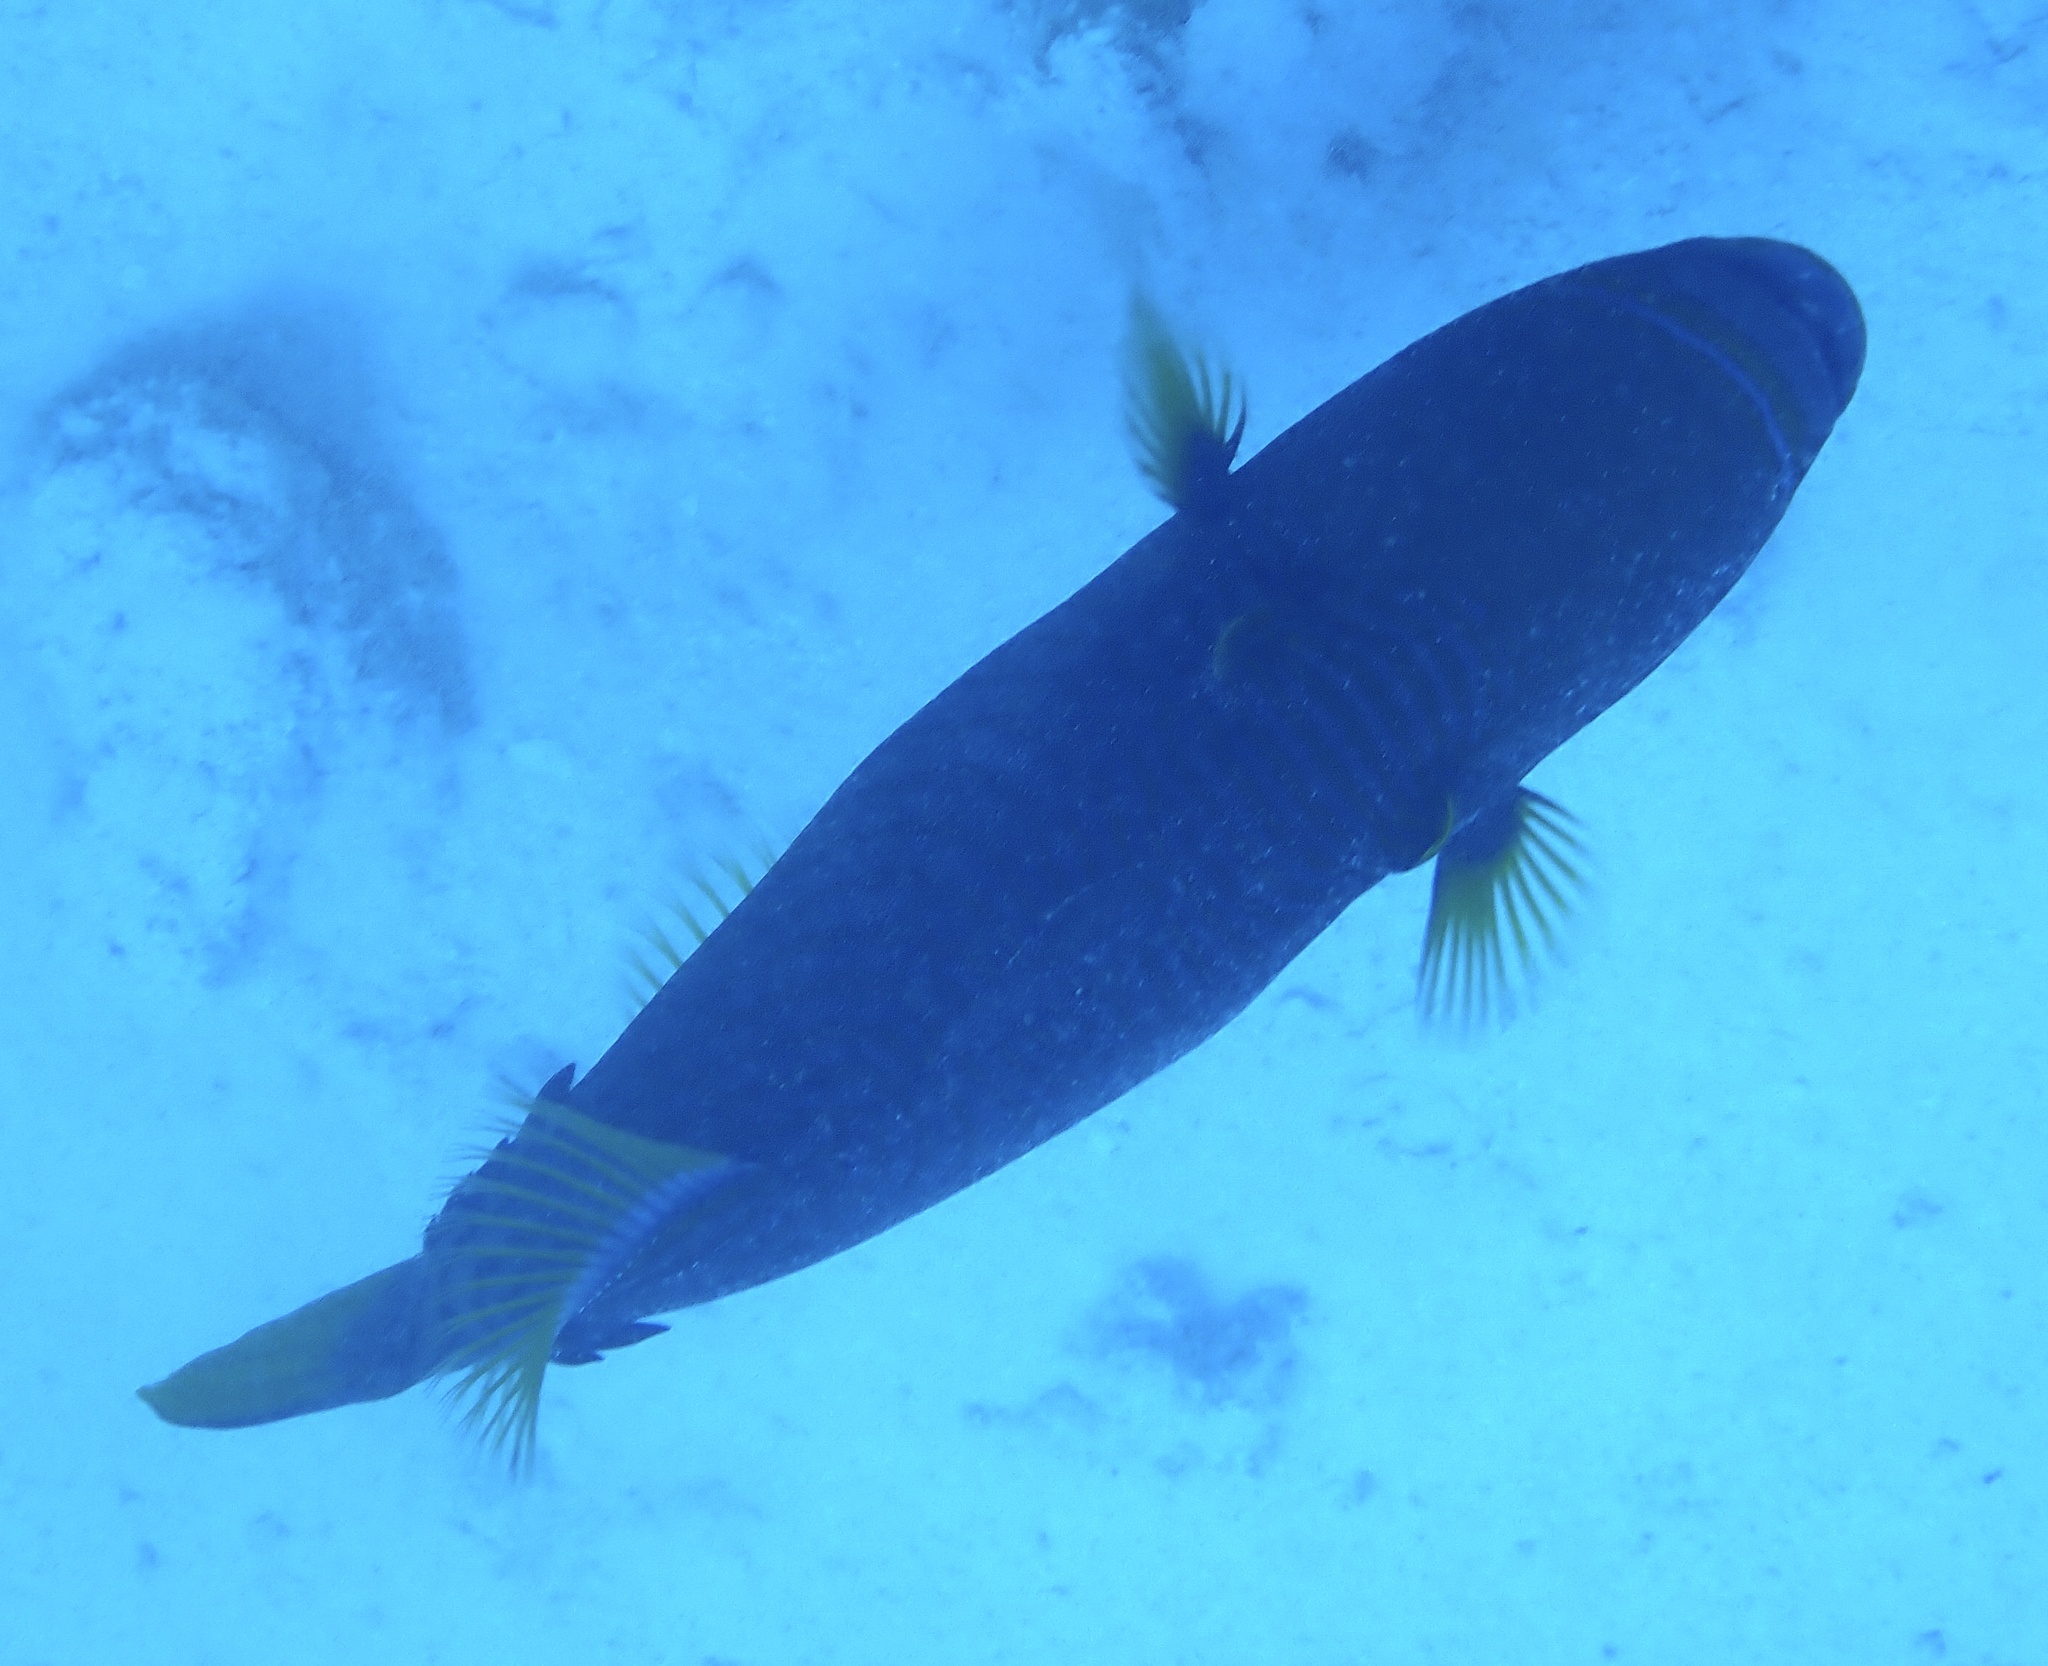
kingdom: Animalia
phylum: Chordata
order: Tetraodontiformes
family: Balistidae
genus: Balistapus
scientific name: Balistapus undulatus
